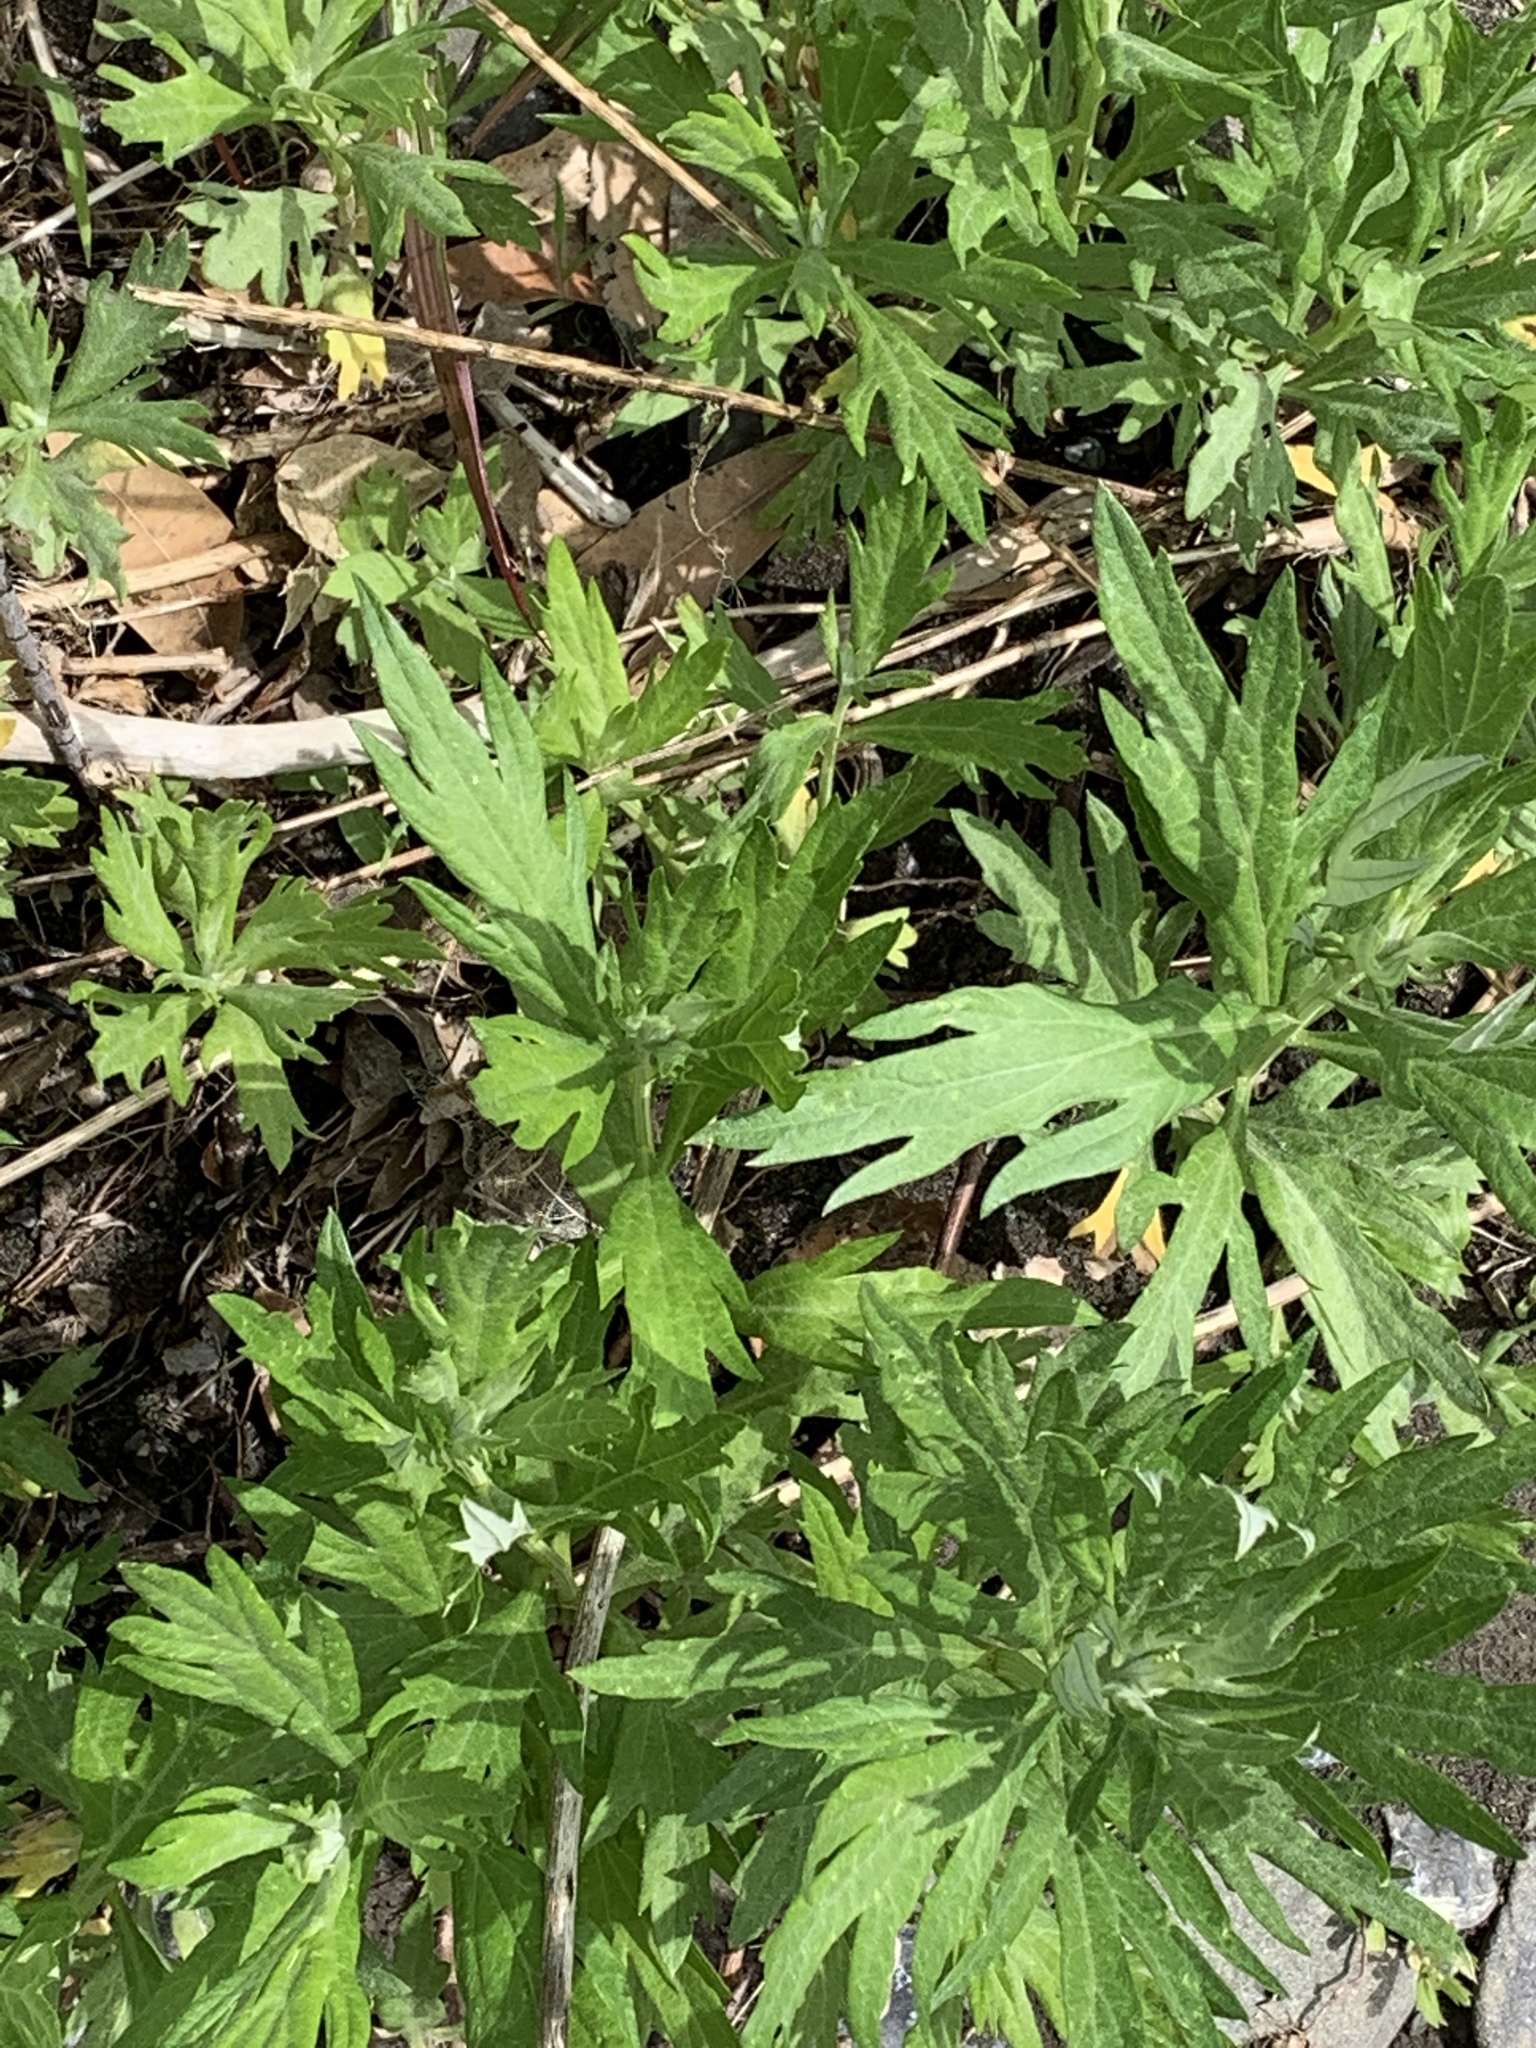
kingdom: Plantae
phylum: Tracheophyta
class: Magnoliopsida
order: Asterales
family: Asteraceae
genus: Artemisia
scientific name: Artemisia douglasiana
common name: Northwest mugwort
